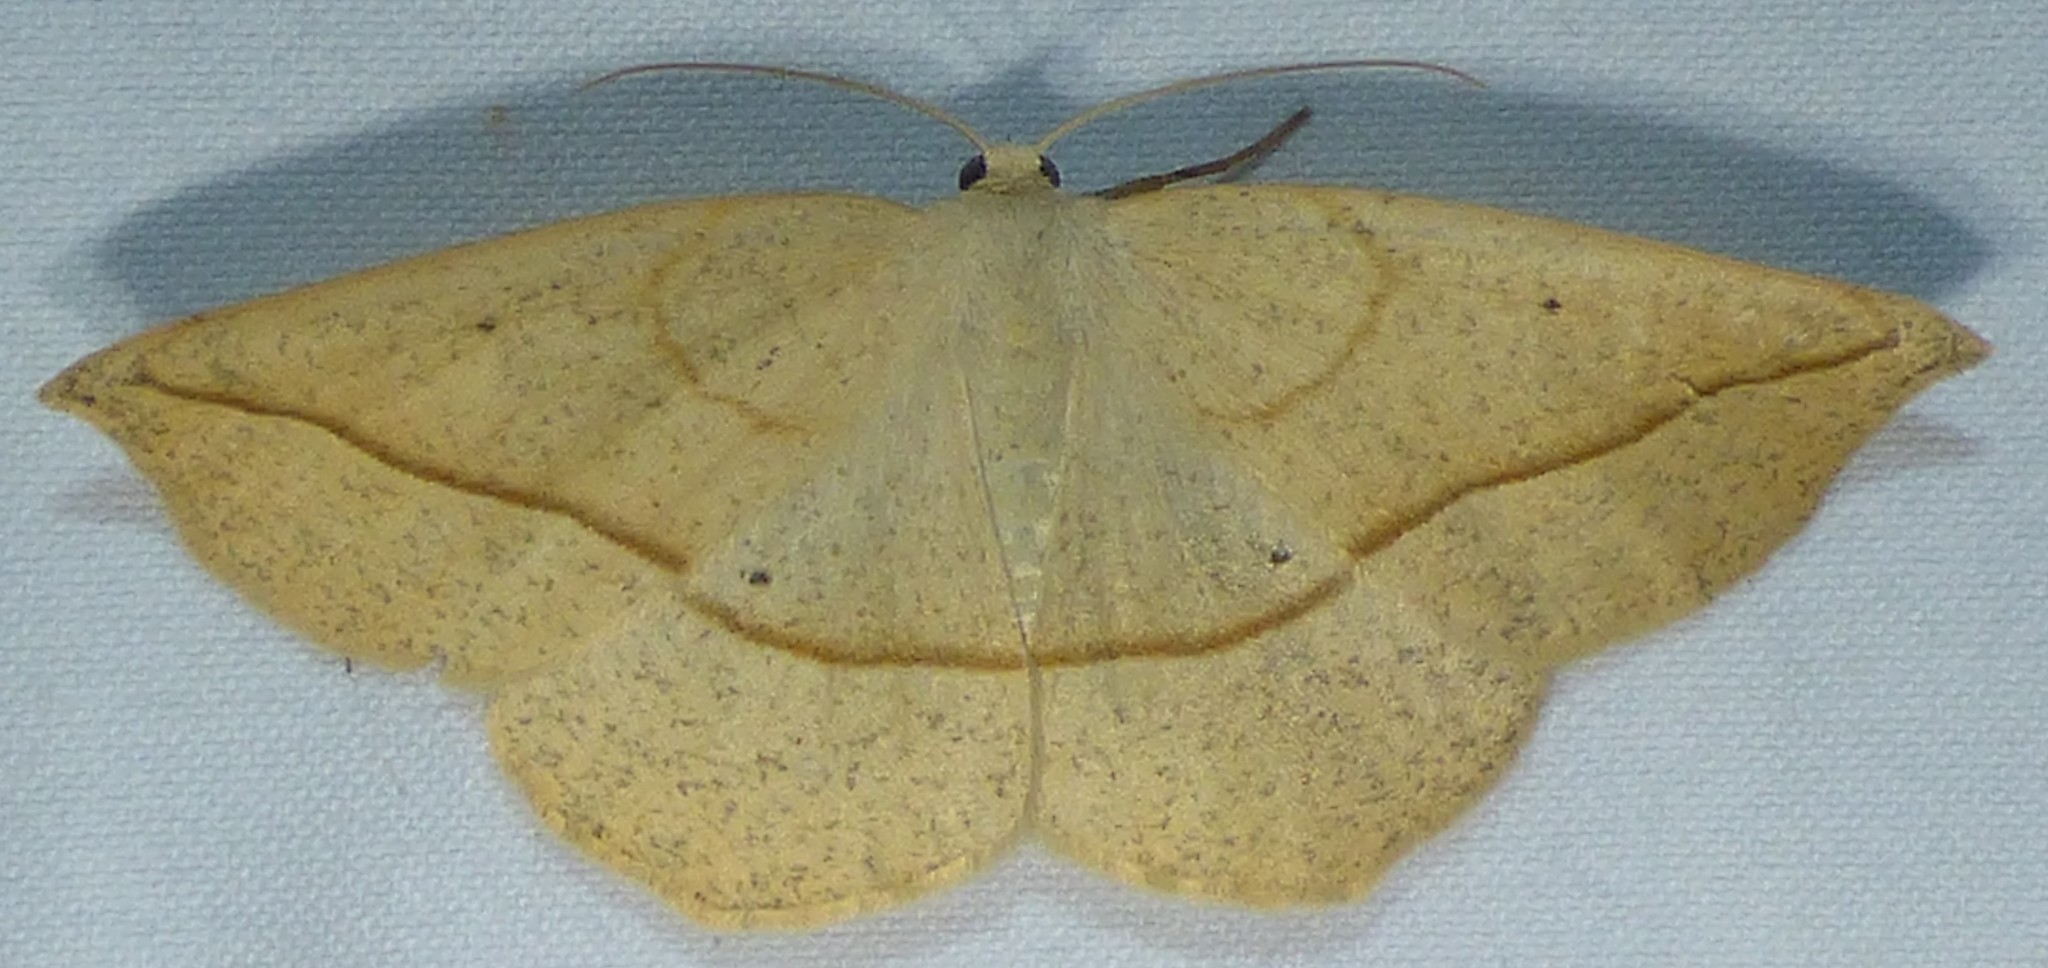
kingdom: Animalia
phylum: Arthropoda
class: Insecta
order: Lepidoptera
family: Geometridae
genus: Eusarca
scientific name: Eusarca confusaria
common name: Confused eusarca
